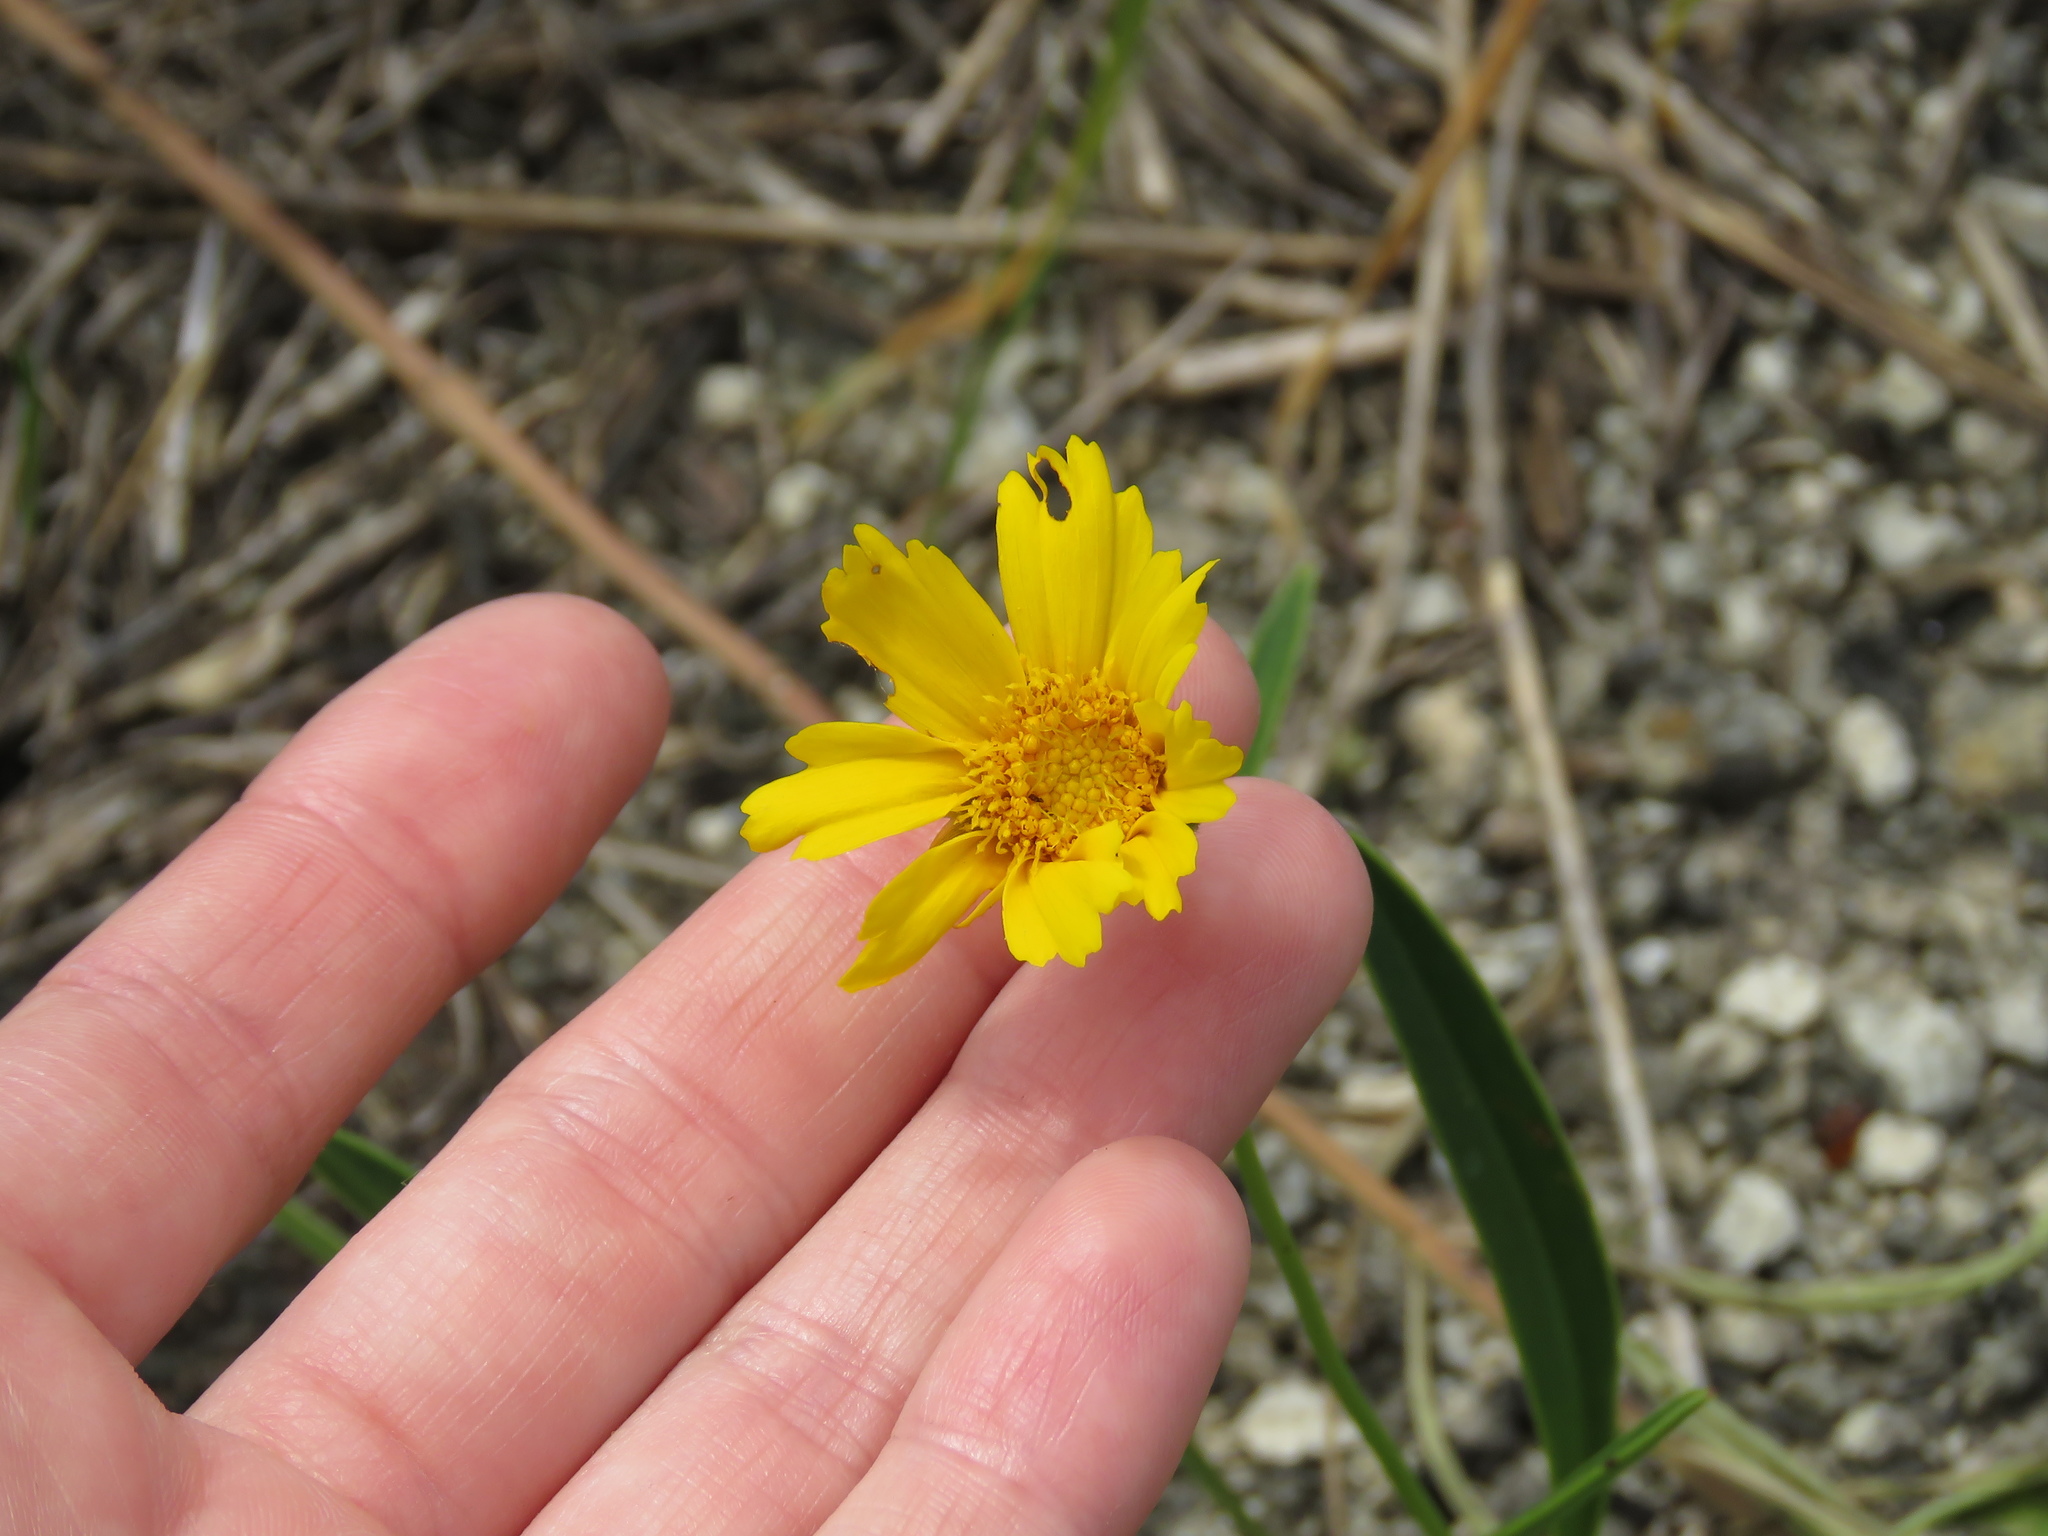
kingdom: Plantae
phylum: Tracheophyta
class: Magnoliopsida
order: Asterales
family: Asteraceae
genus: Coreopsis
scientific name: Coreopsis lanceolata
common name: Garden coreopsis
